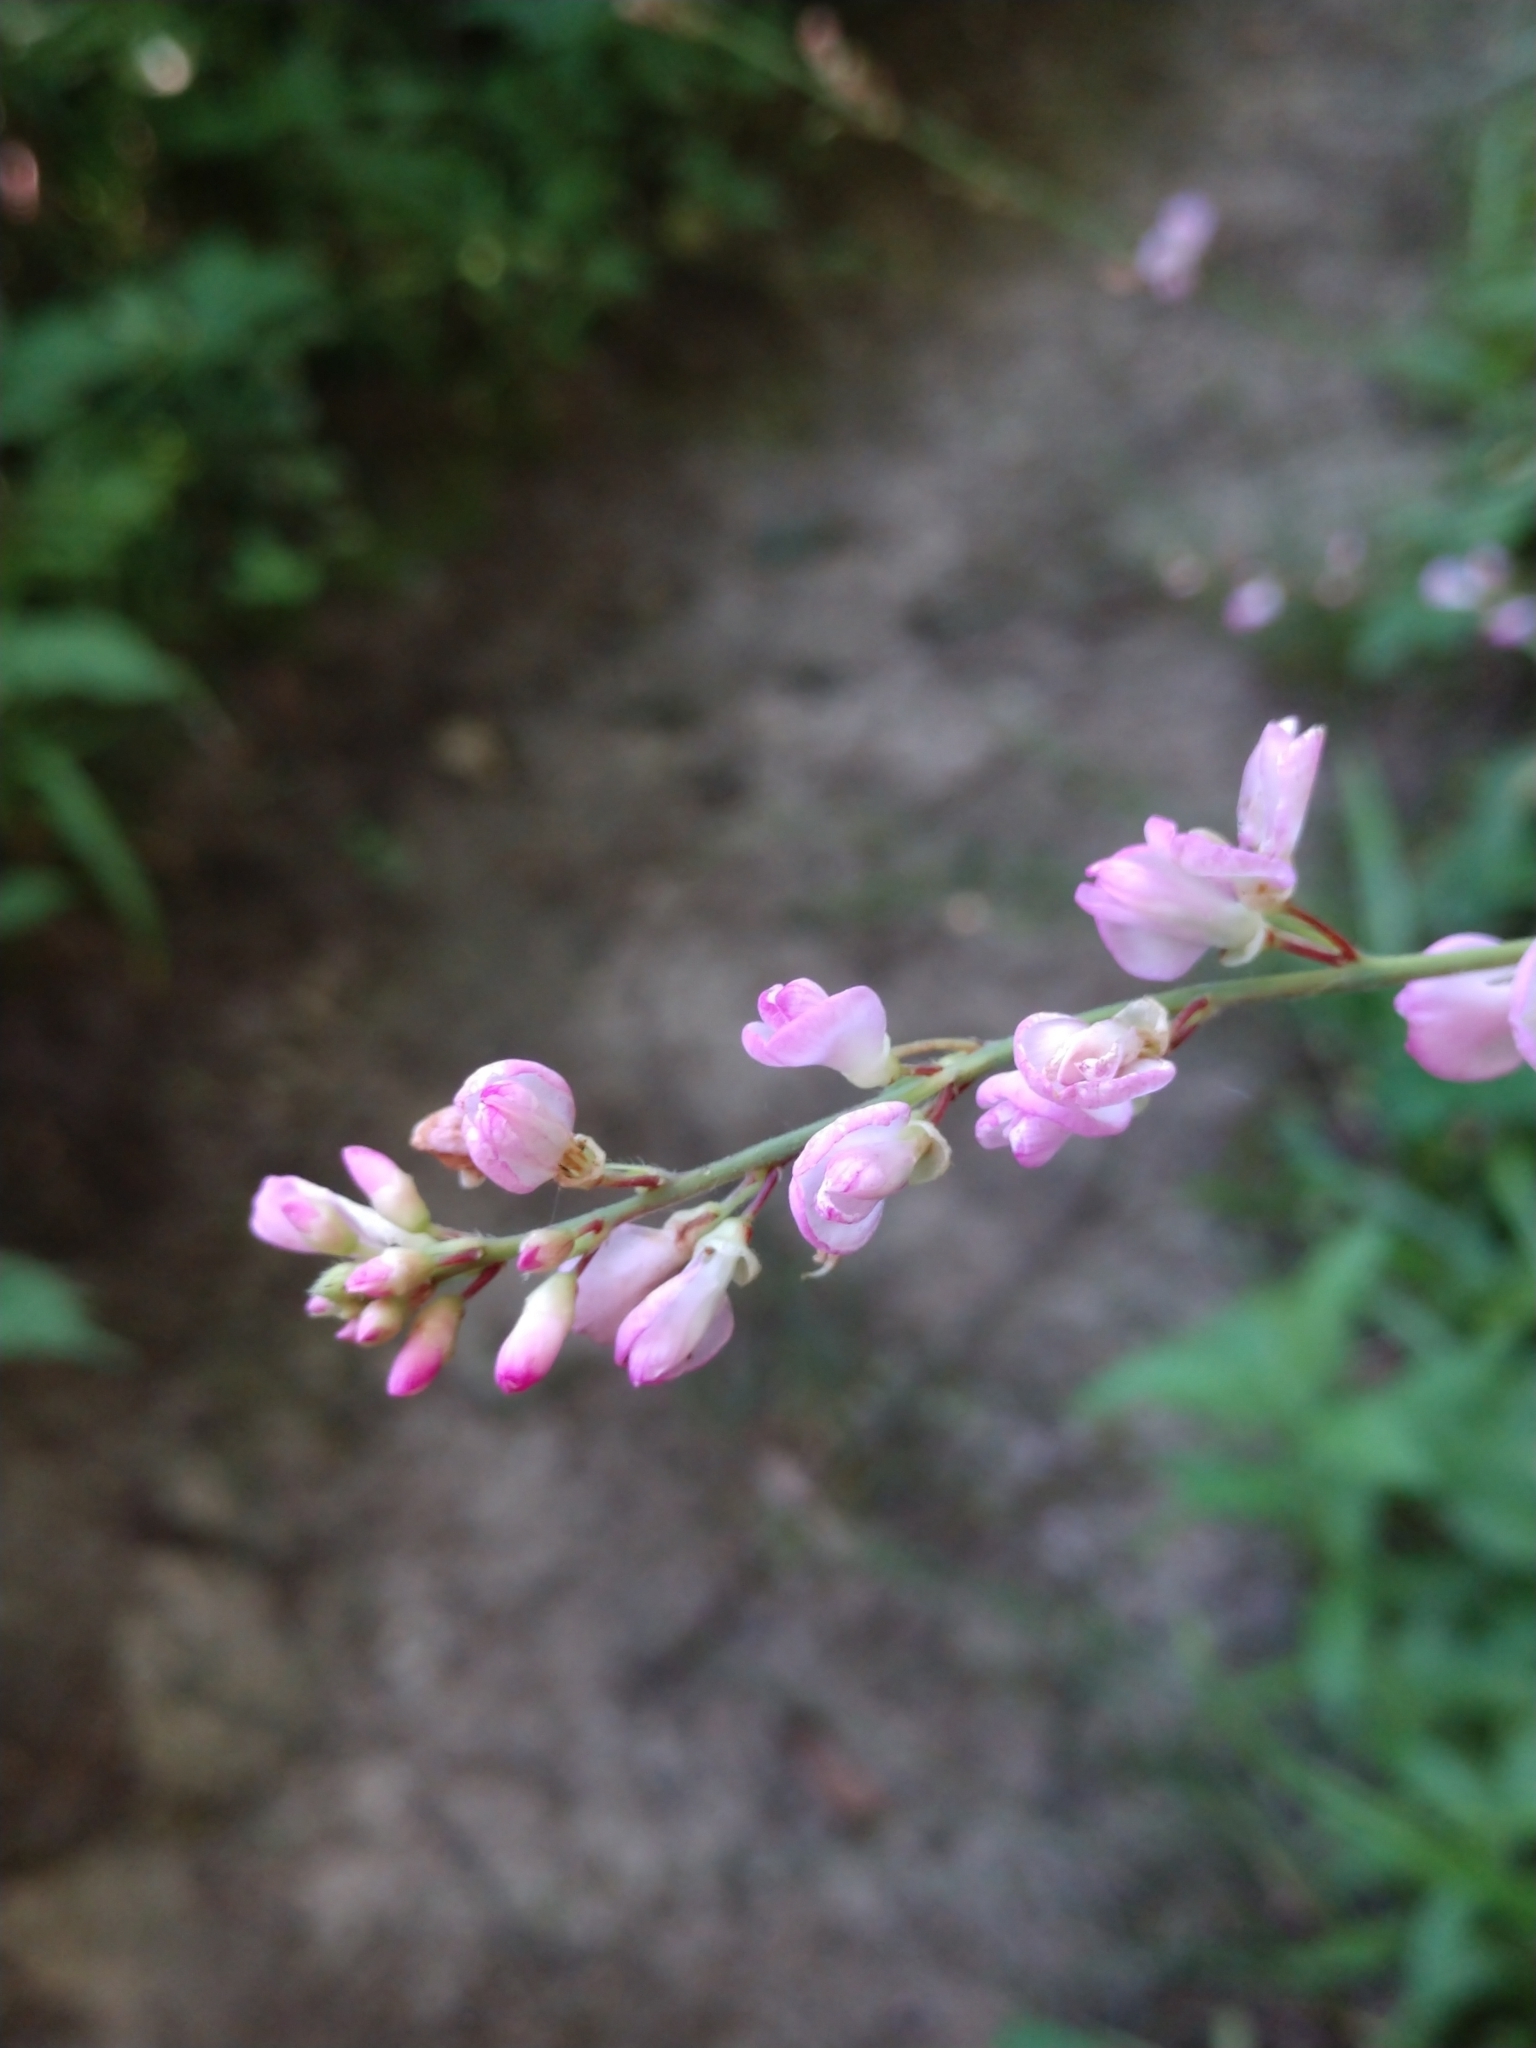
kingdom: Plantae
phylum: Tracheophyta
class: Magnoliopsida
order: Fabales
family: Fabaceae
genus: Hylodesmum
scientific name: Hylodesmum glutinosum
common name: Clustered-leaved tick-trefoil
